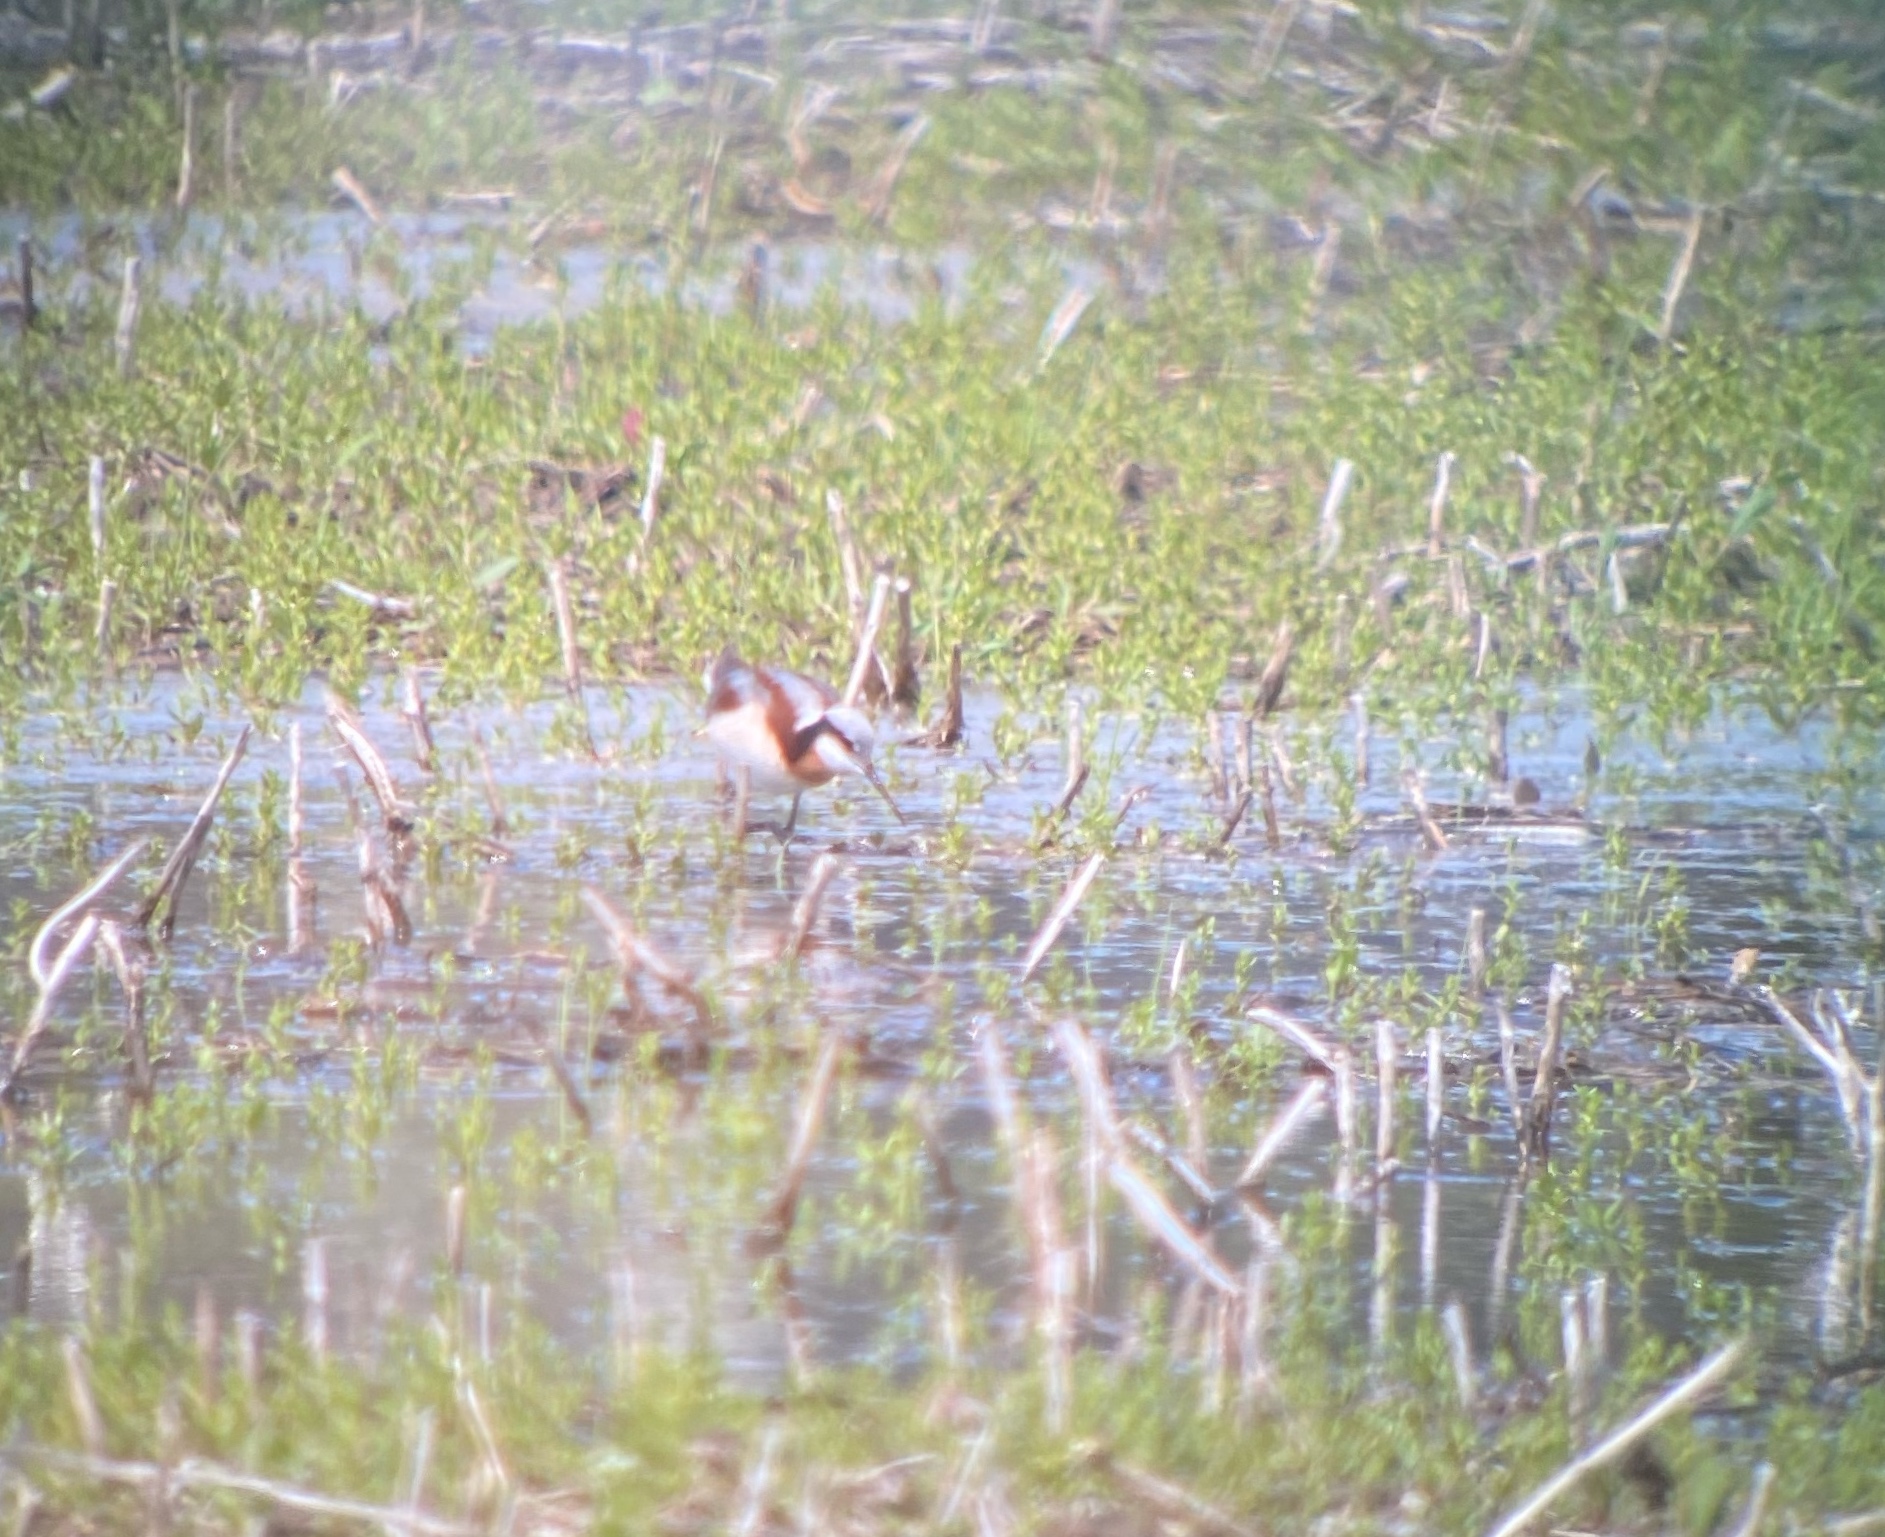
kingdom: Animalia
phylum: Chordata
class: Aves
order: Charadriiformes
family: Scolopacidae
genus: Phalaropus
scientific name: Phalaropus tricolor
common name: Wilson's phalarope
